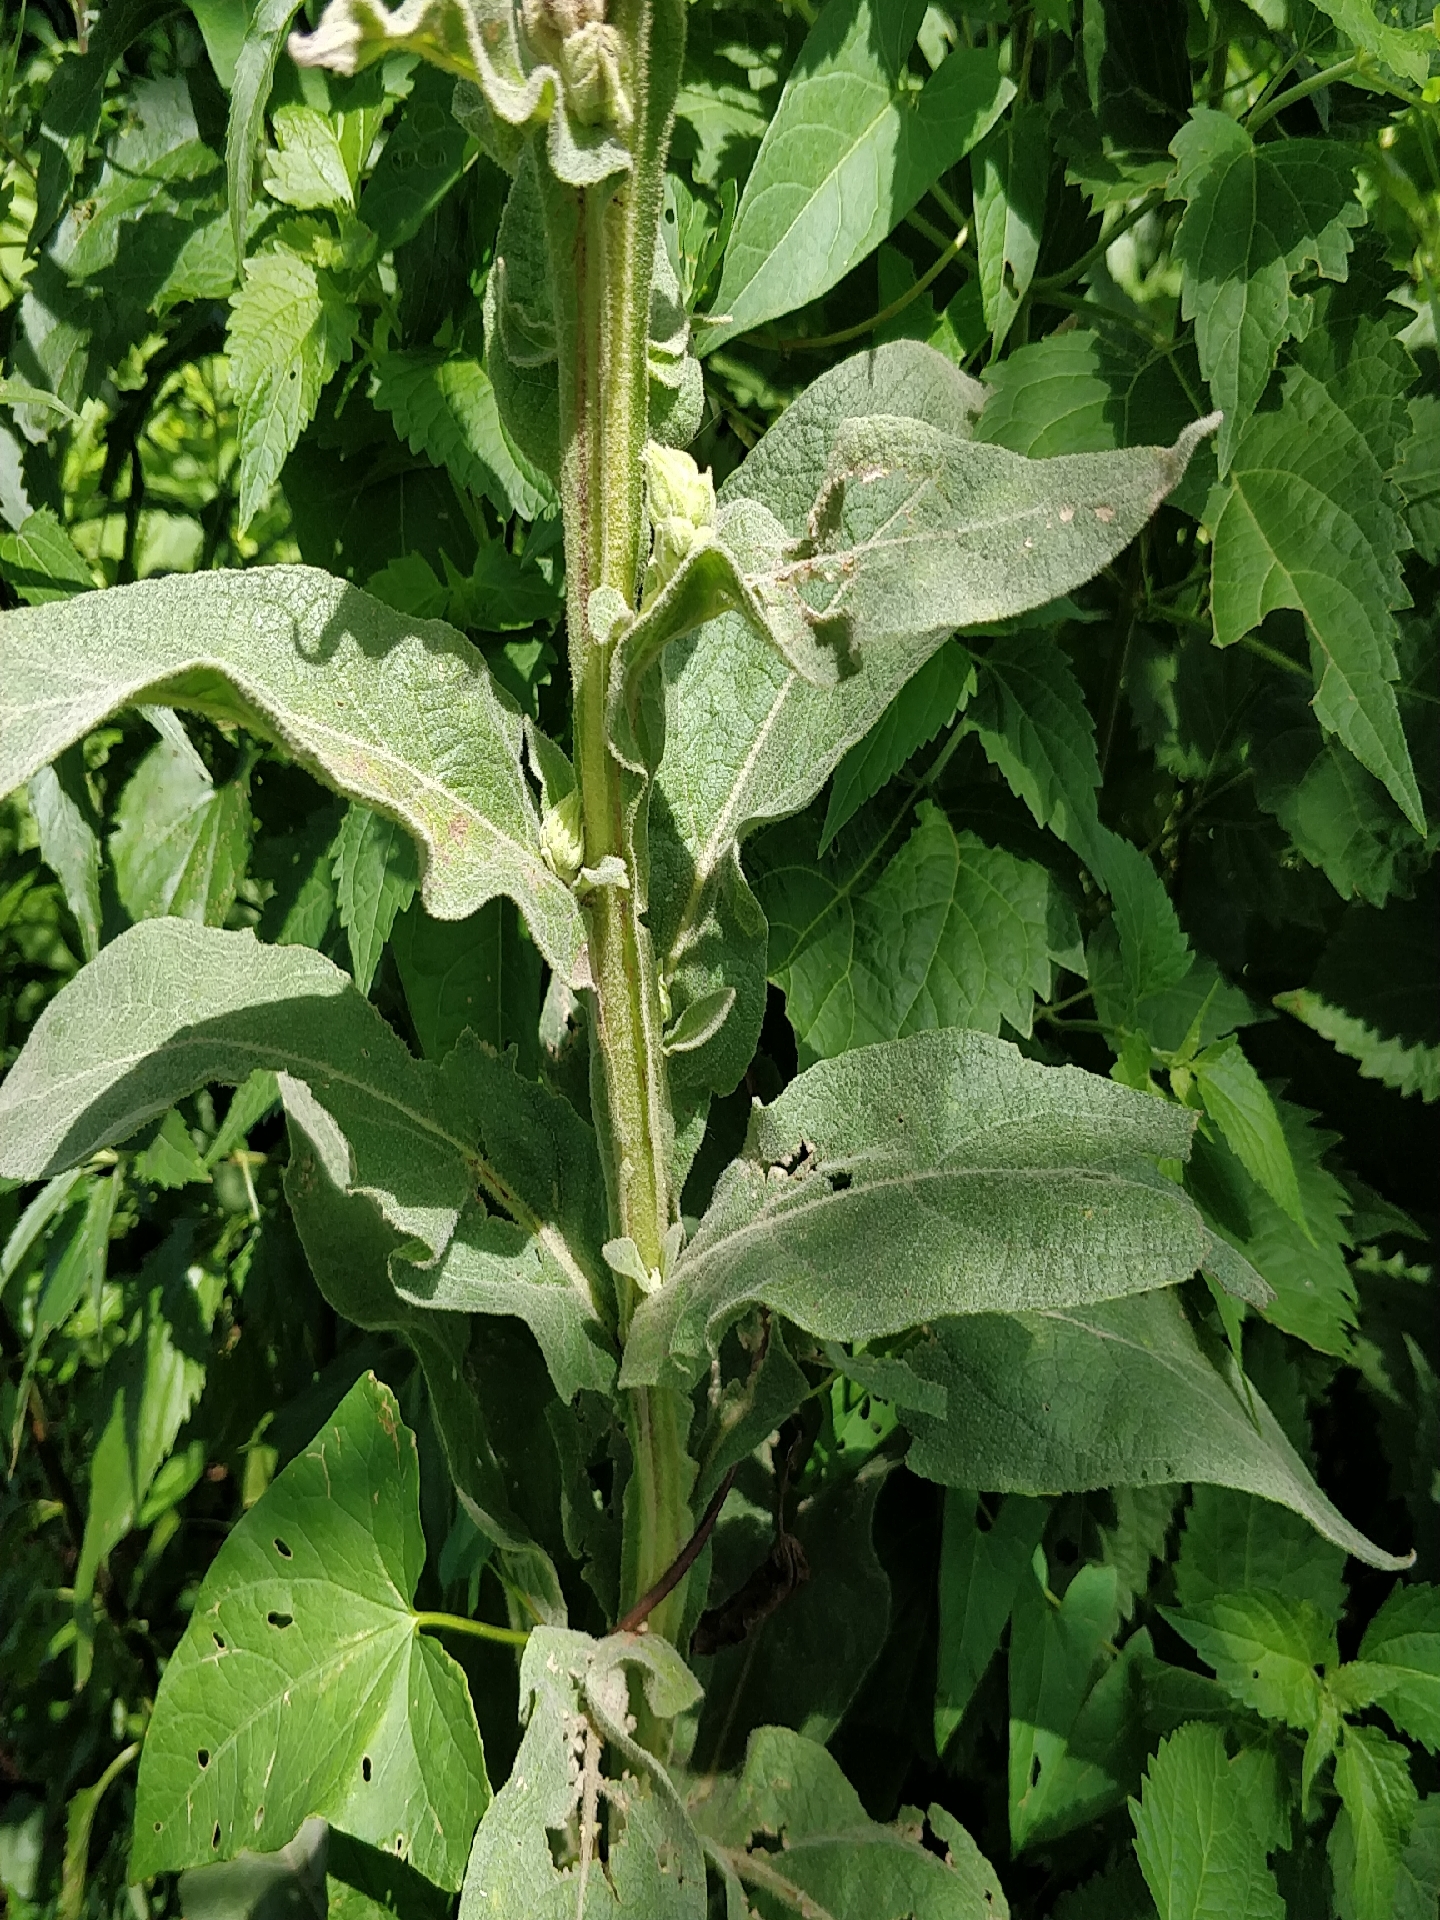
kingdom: Plantae
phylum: Tracheophyta
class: Magnoliopsida
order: Lamiales
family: Scrophulariaceae
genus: Verbascum
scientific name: Verbascum thapsus
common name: Common mullein
